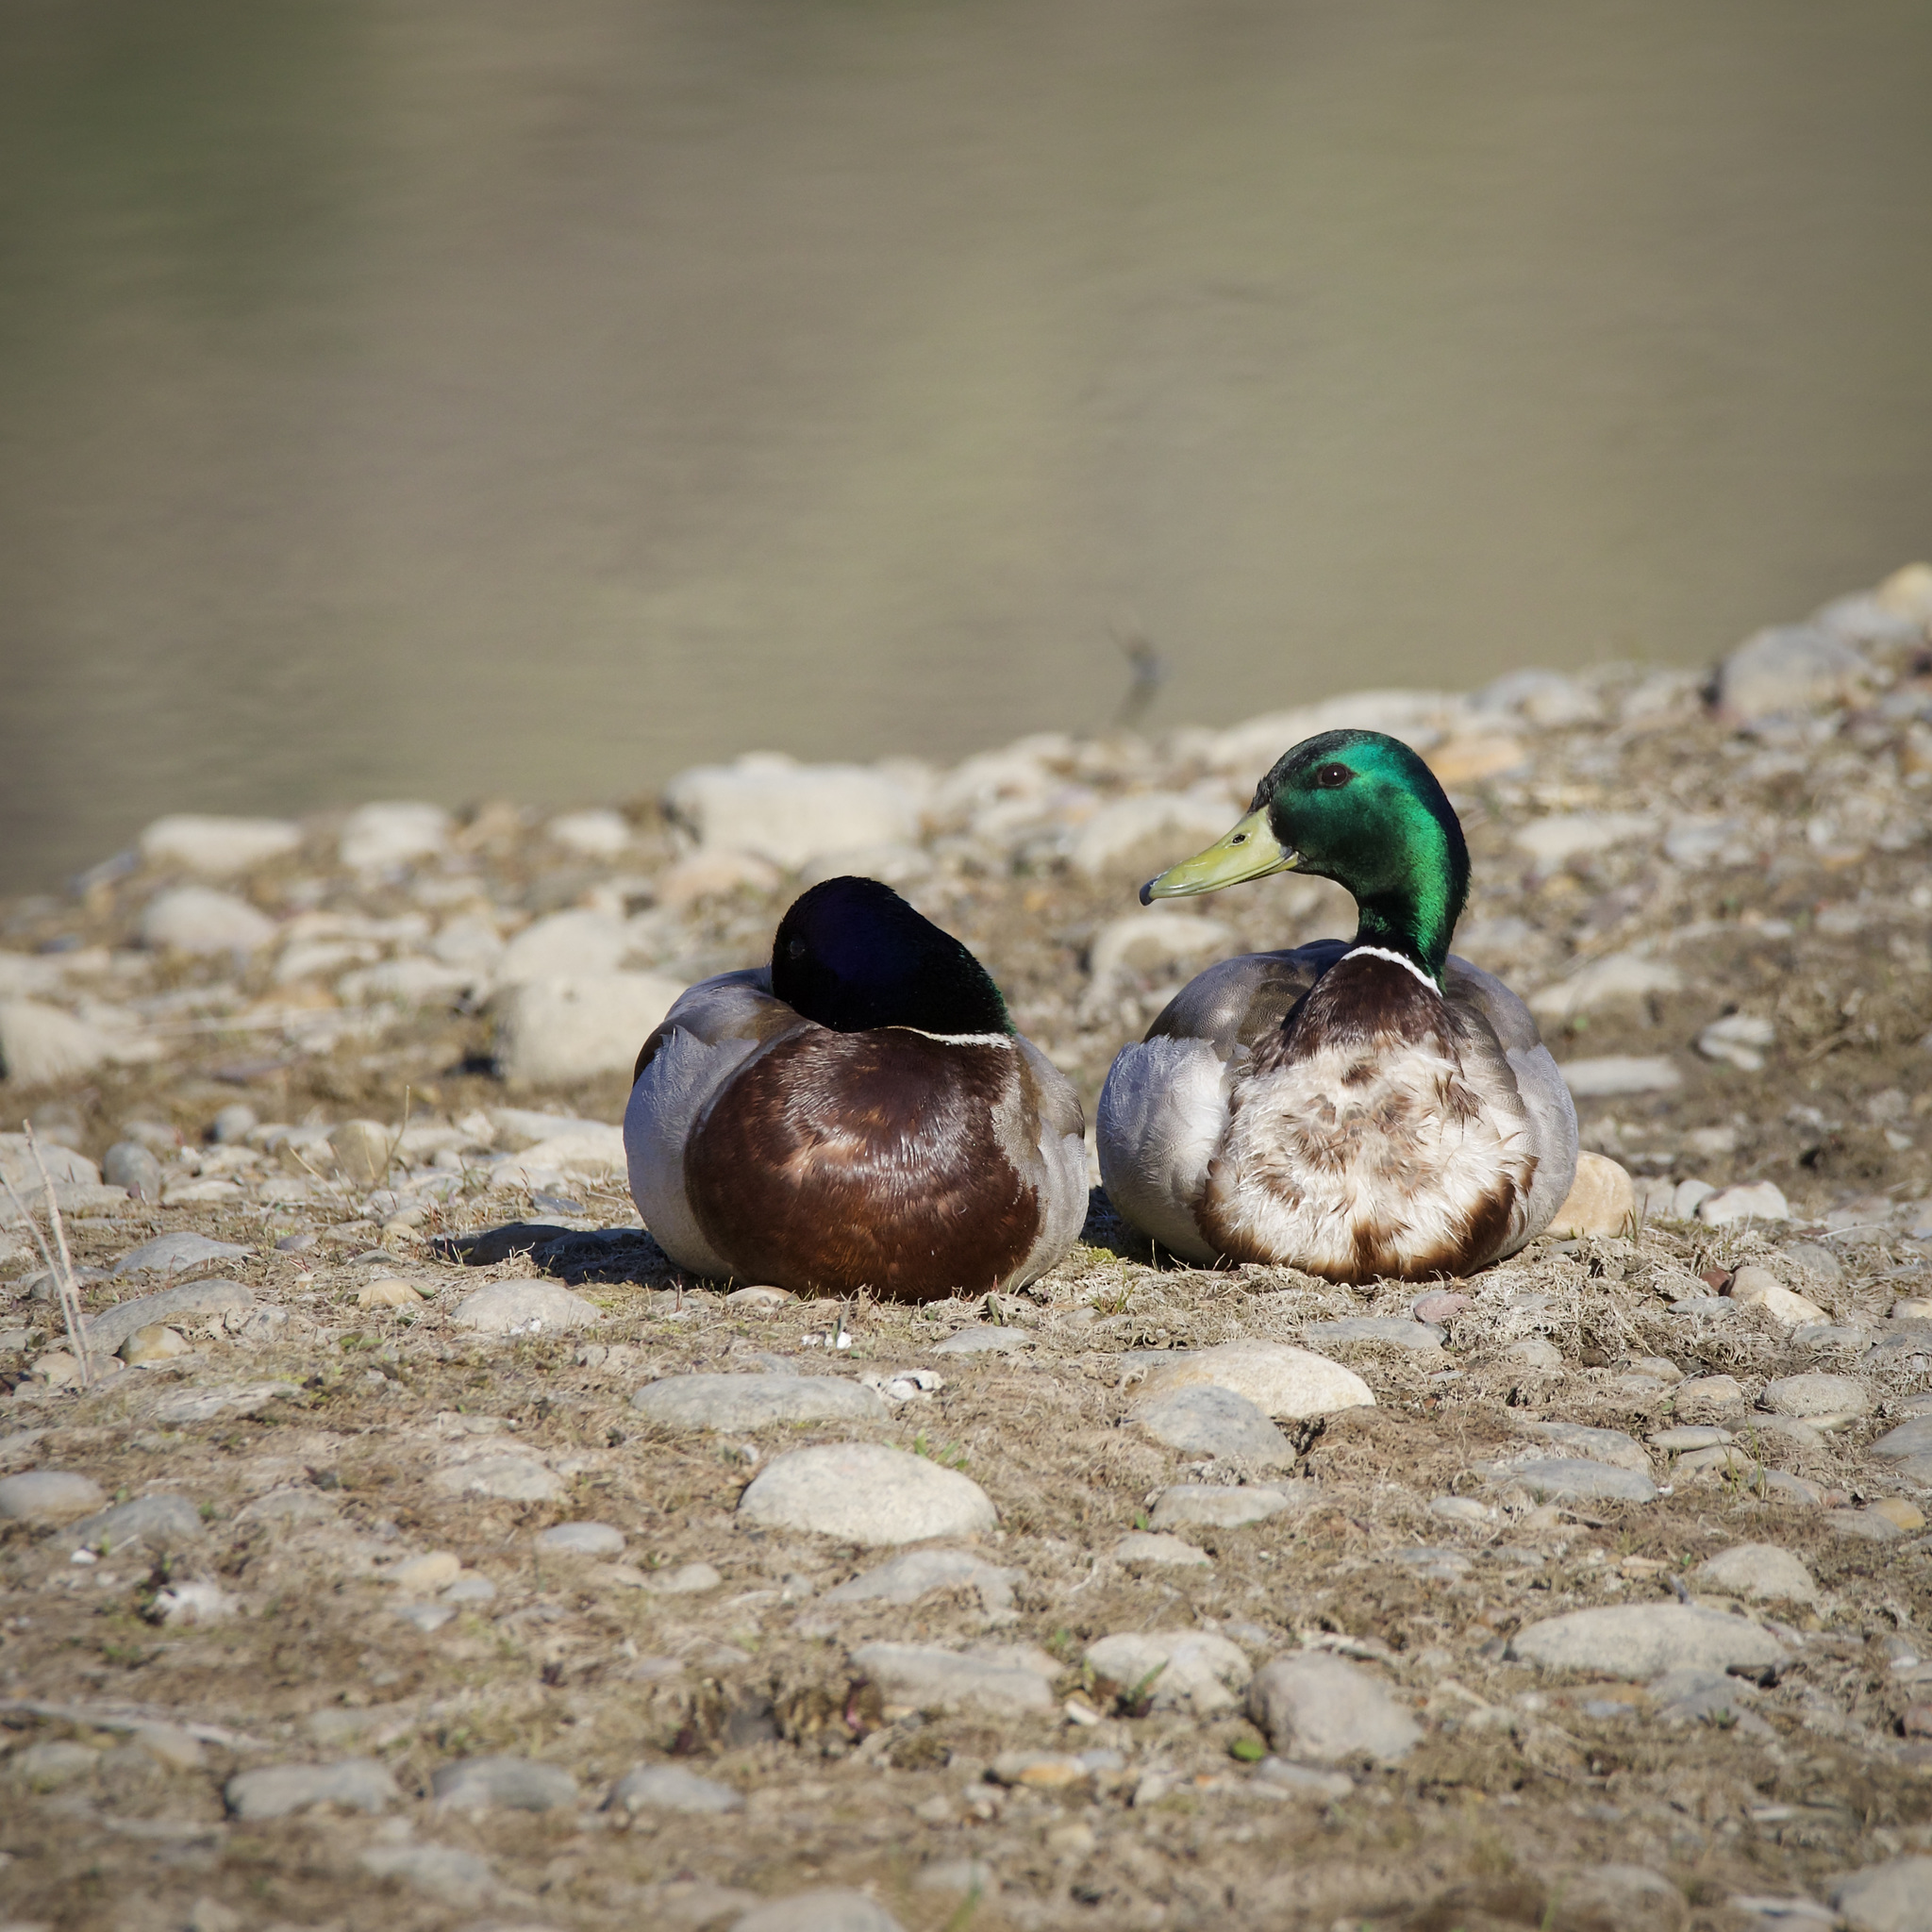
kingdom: Animalia
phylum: Chordata
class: Aves
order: Anseriformes
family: Anatidae
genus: Anas
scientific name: Anas platyrhynchos
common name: Mallard
